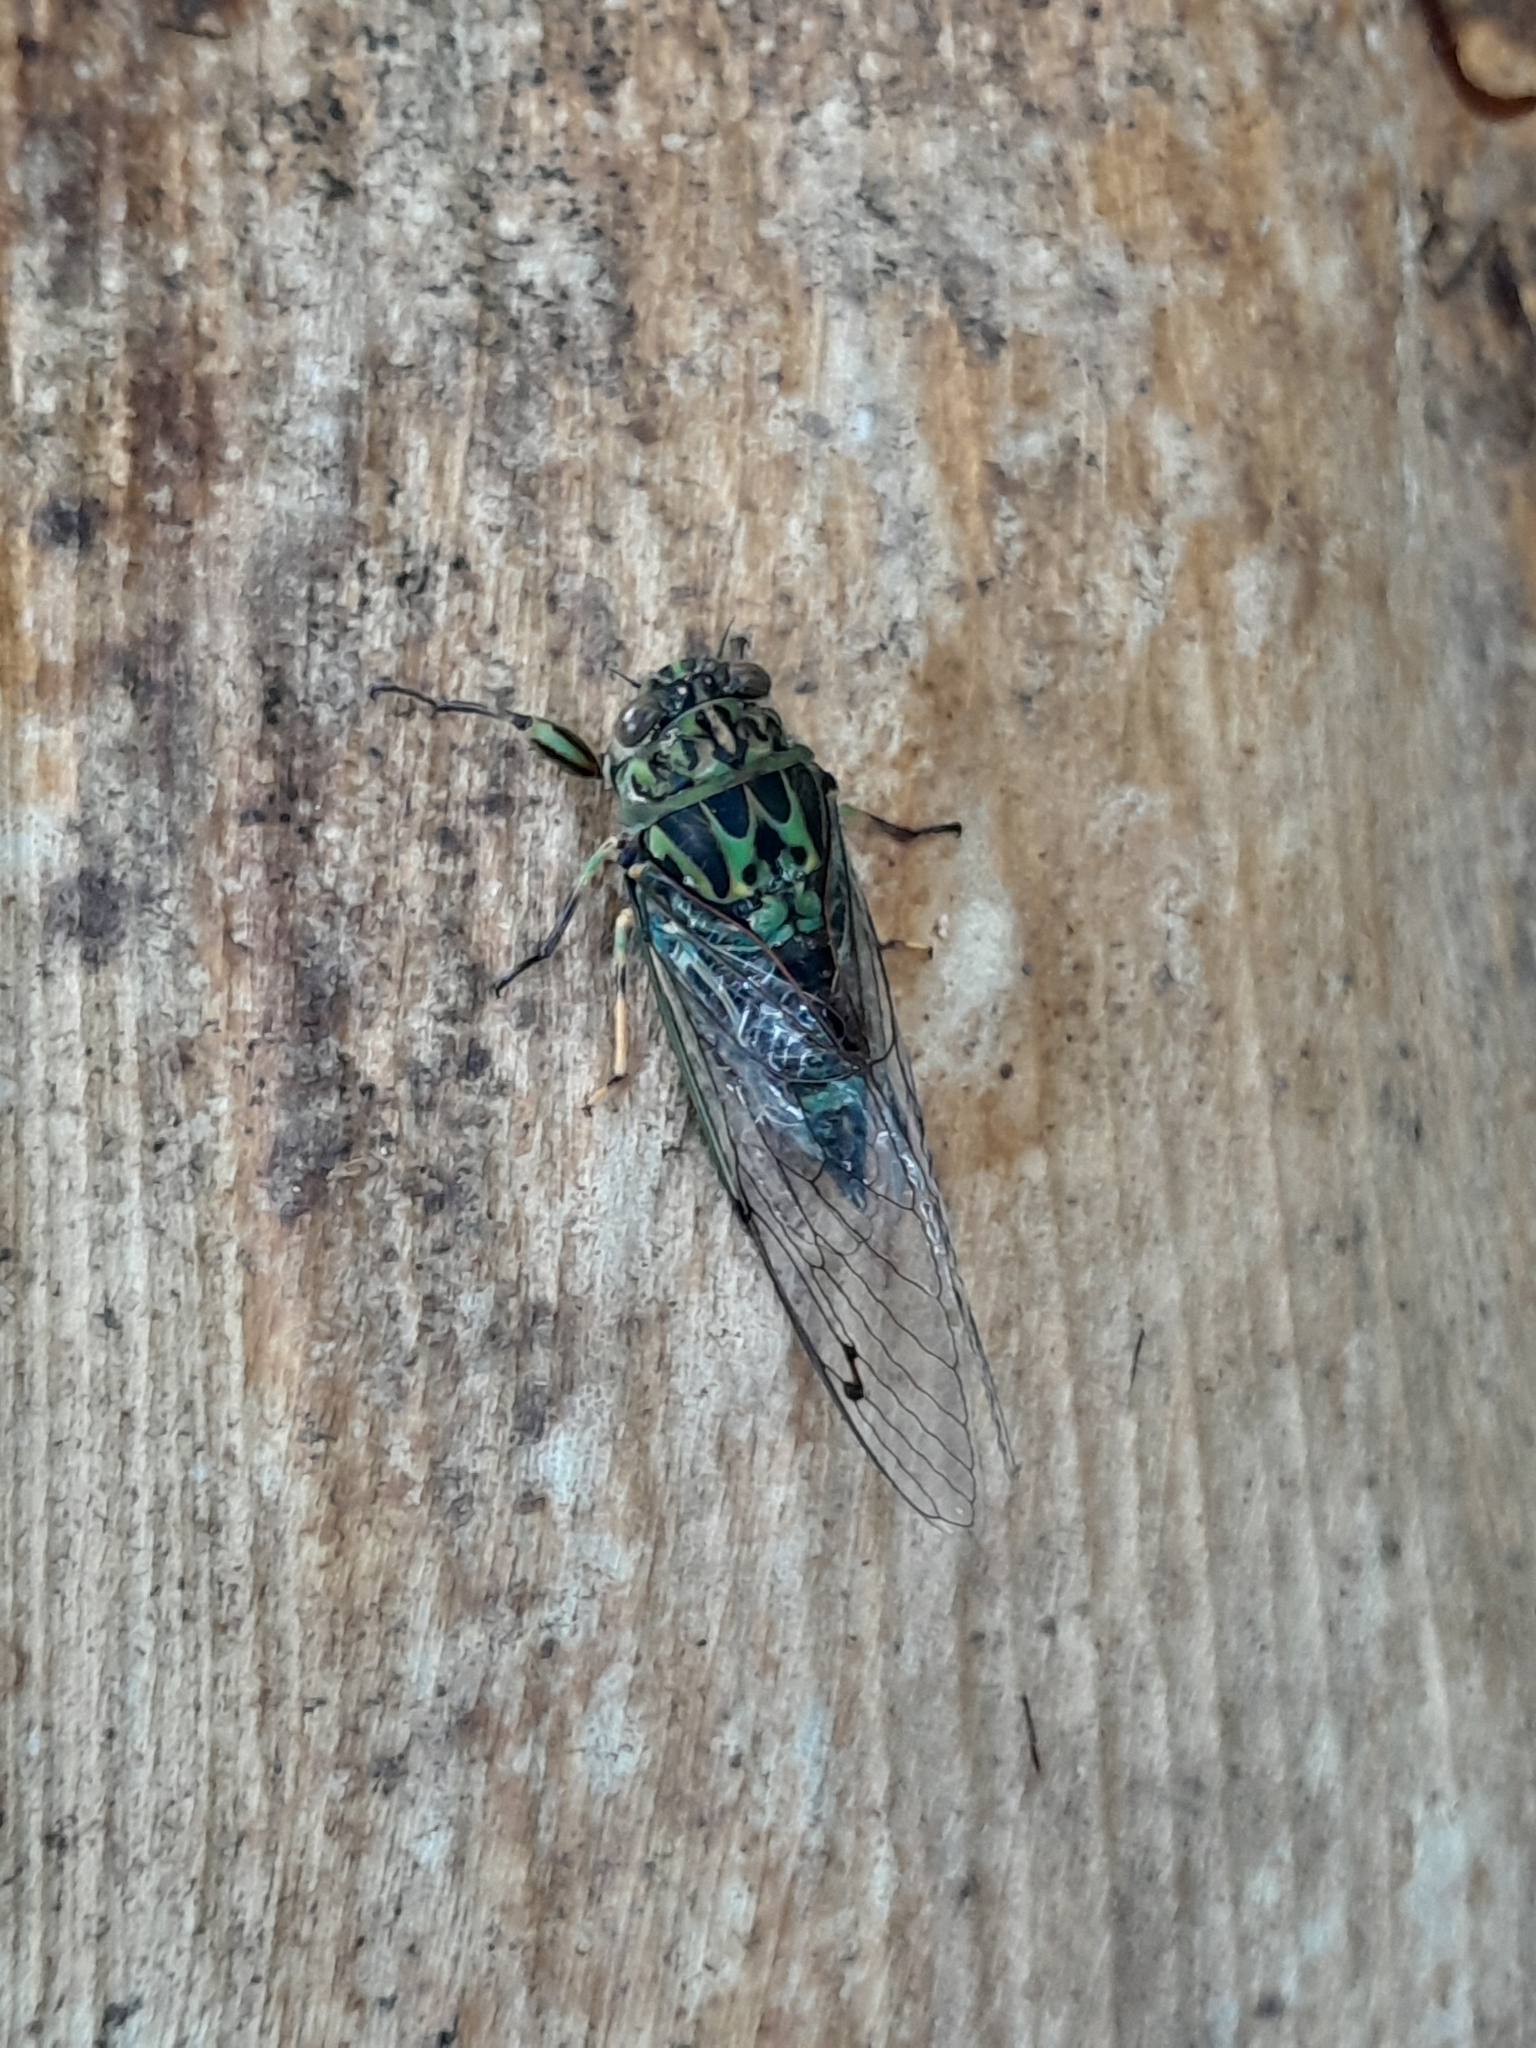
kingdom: Animalia
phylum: Arthropoda
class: Insecta
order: Hemiptera
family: Cicadidae
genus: Amphipsalta
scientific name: Amphipsalta zelandica
